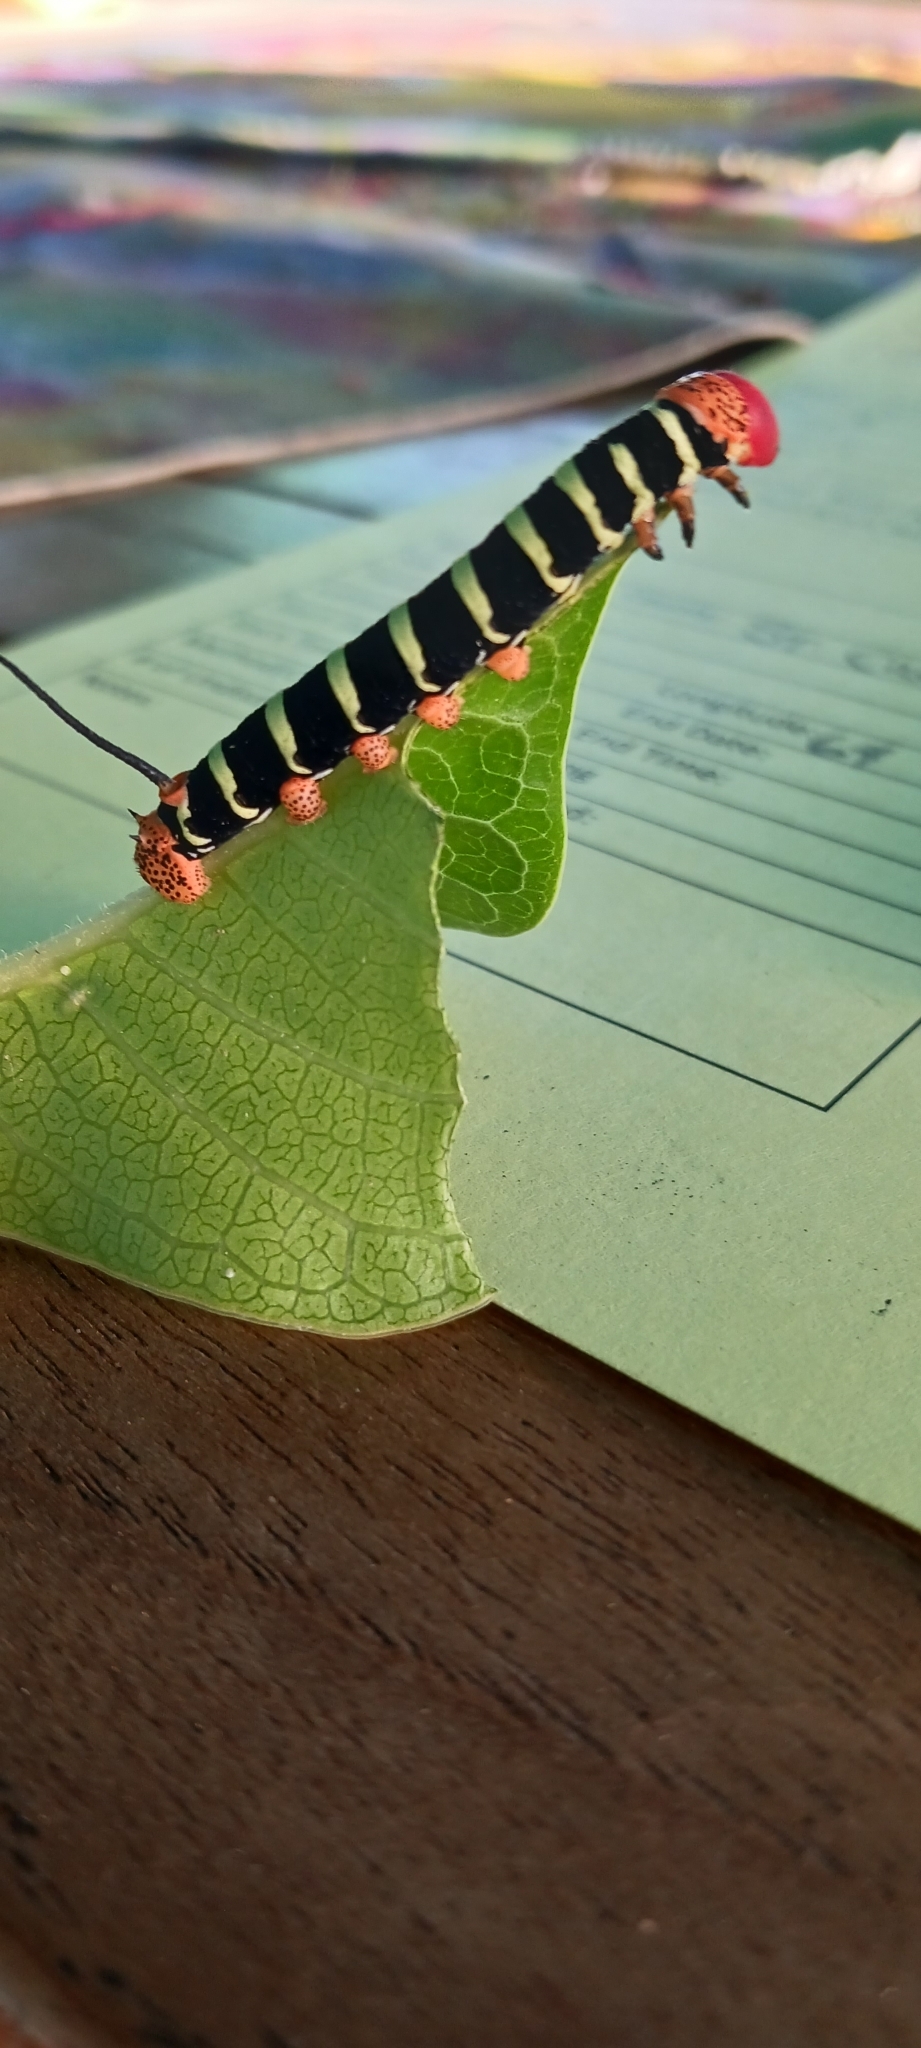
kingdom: Animalia
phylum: Arthropoda
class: Insecta
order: Lepidoptera
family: Sphingidae
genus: Pseudosphinx
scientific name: Pseudosphinx tetrio
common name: Tetrio sphinx
